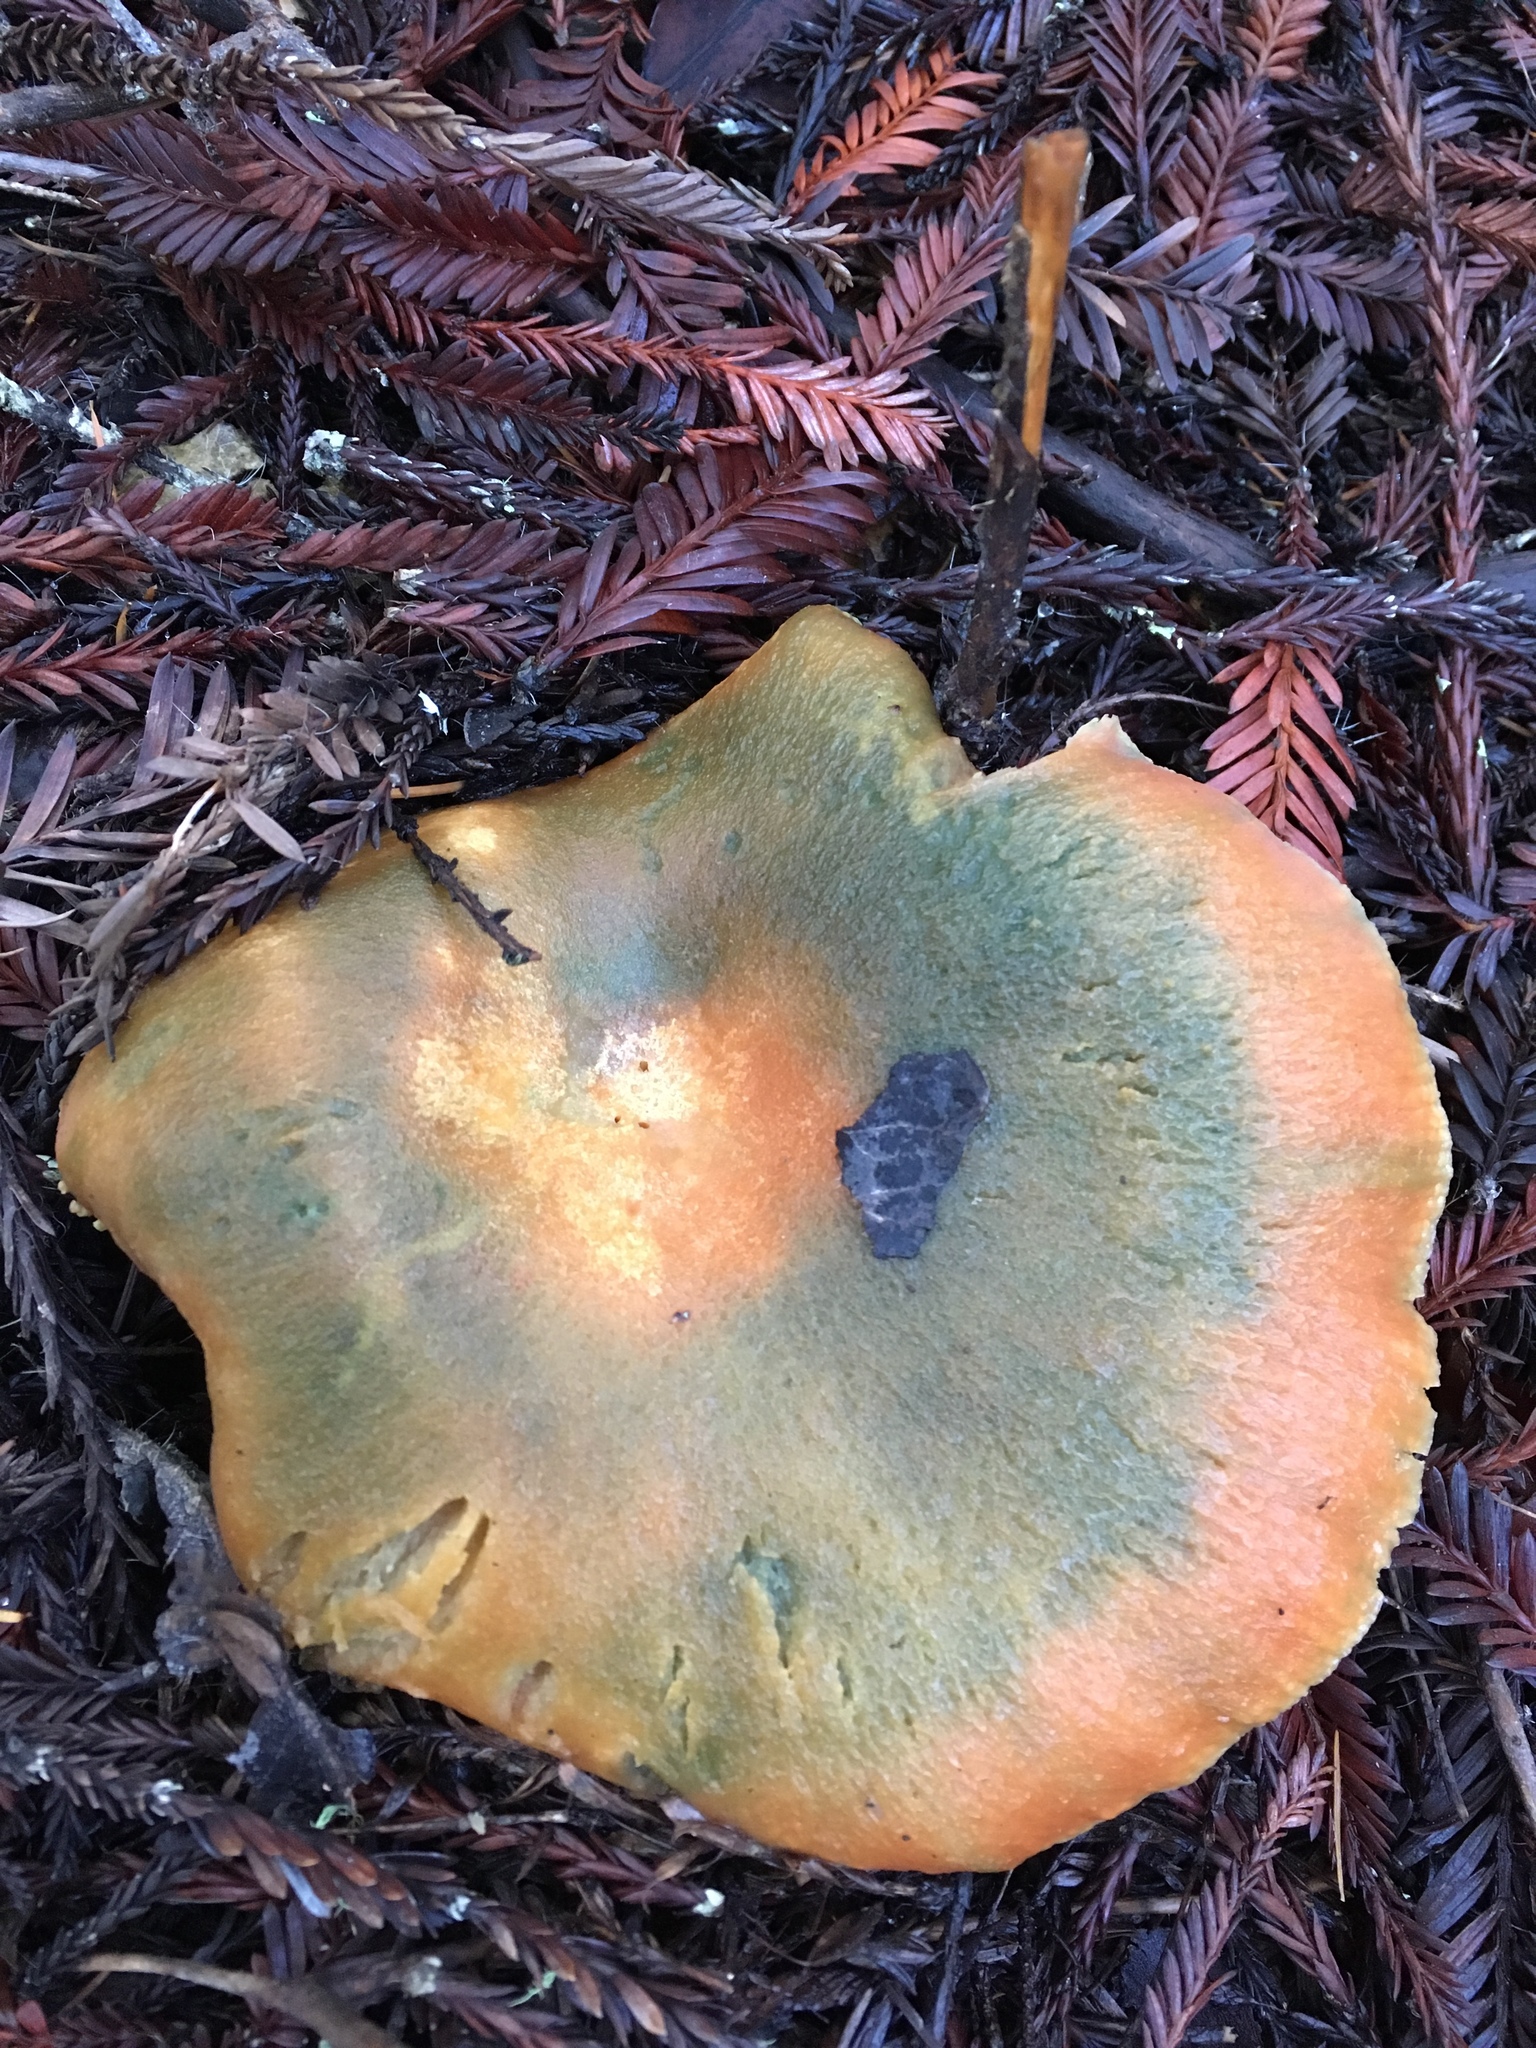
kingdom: Fungi
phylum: Basidiomycota
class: Agaricomycetes
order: Russulales
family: Russulaceae
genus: Lactarius
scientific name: Lactarius rubrilacteus
